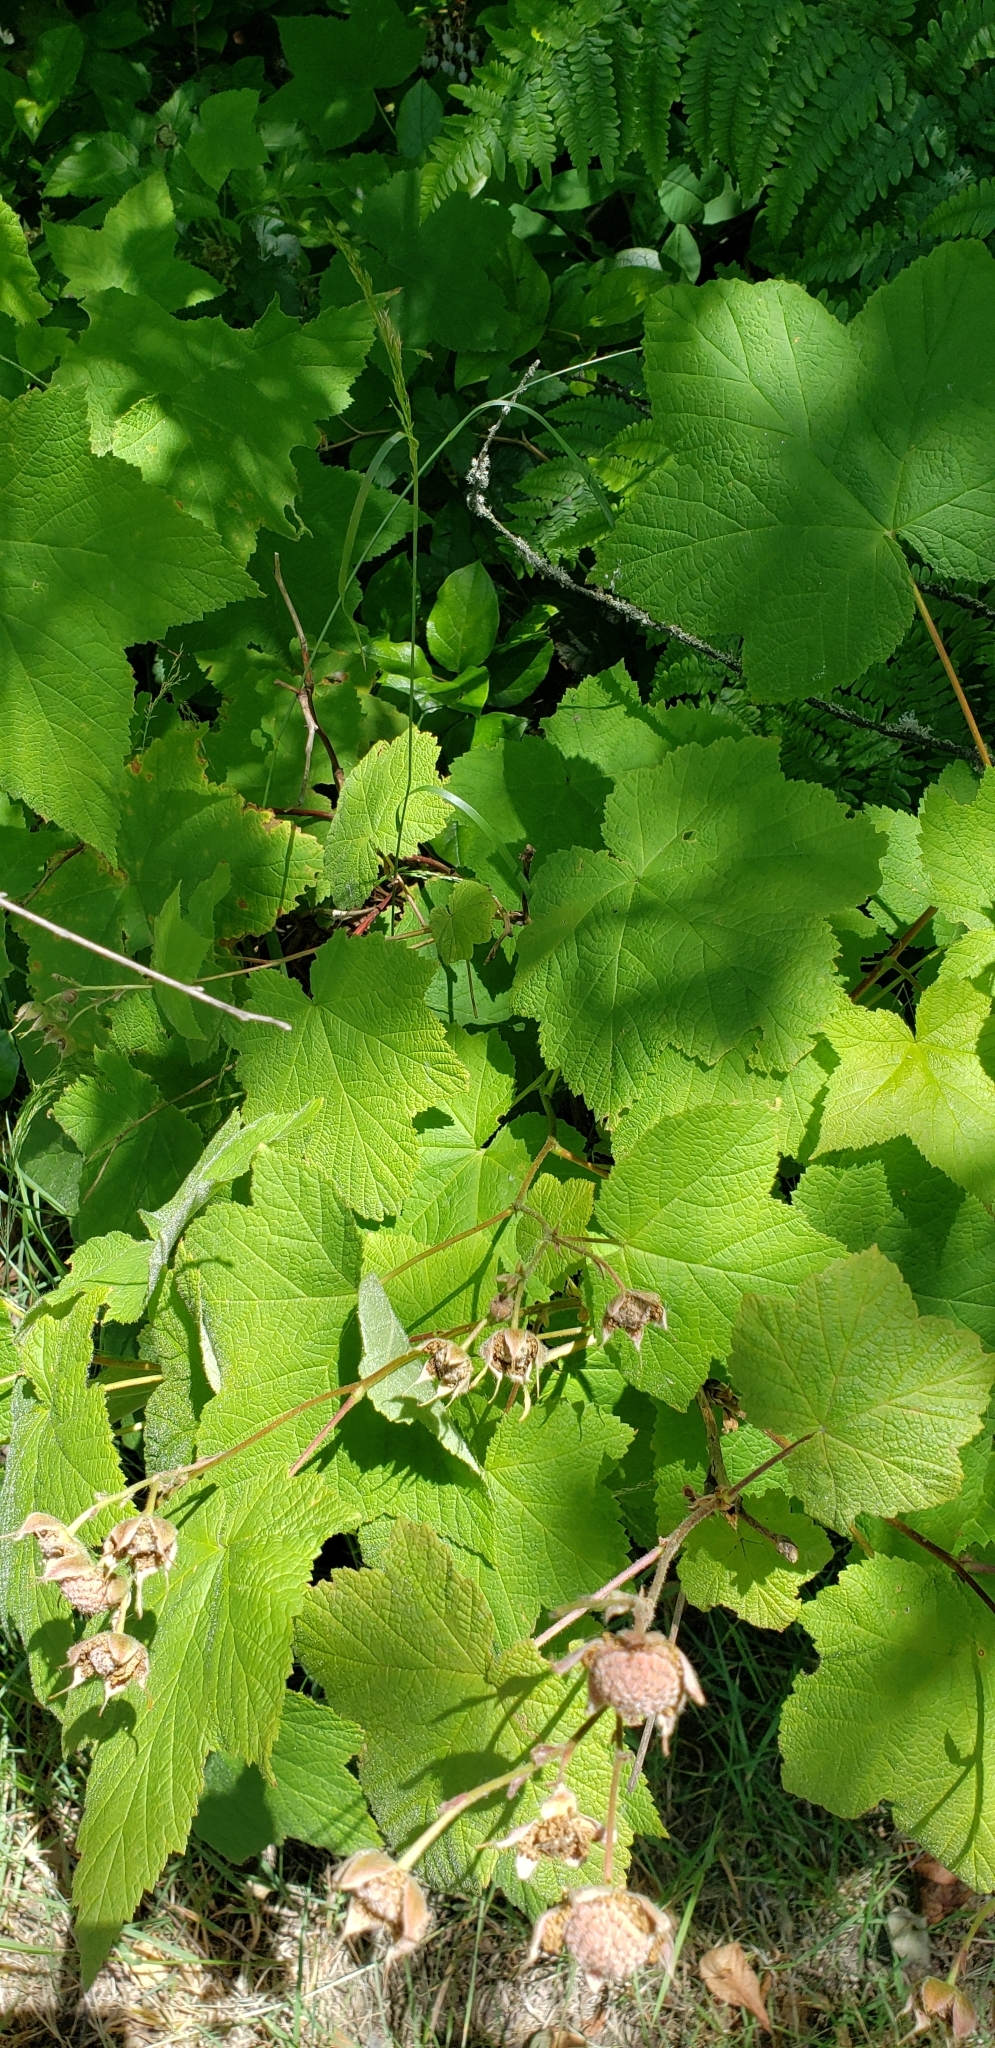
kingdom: Plantae
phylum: Tracheophyta
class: Magnoliopsida
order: Rosales
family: Rosaceae
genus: Rubus
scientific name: Rubus parviflorus
